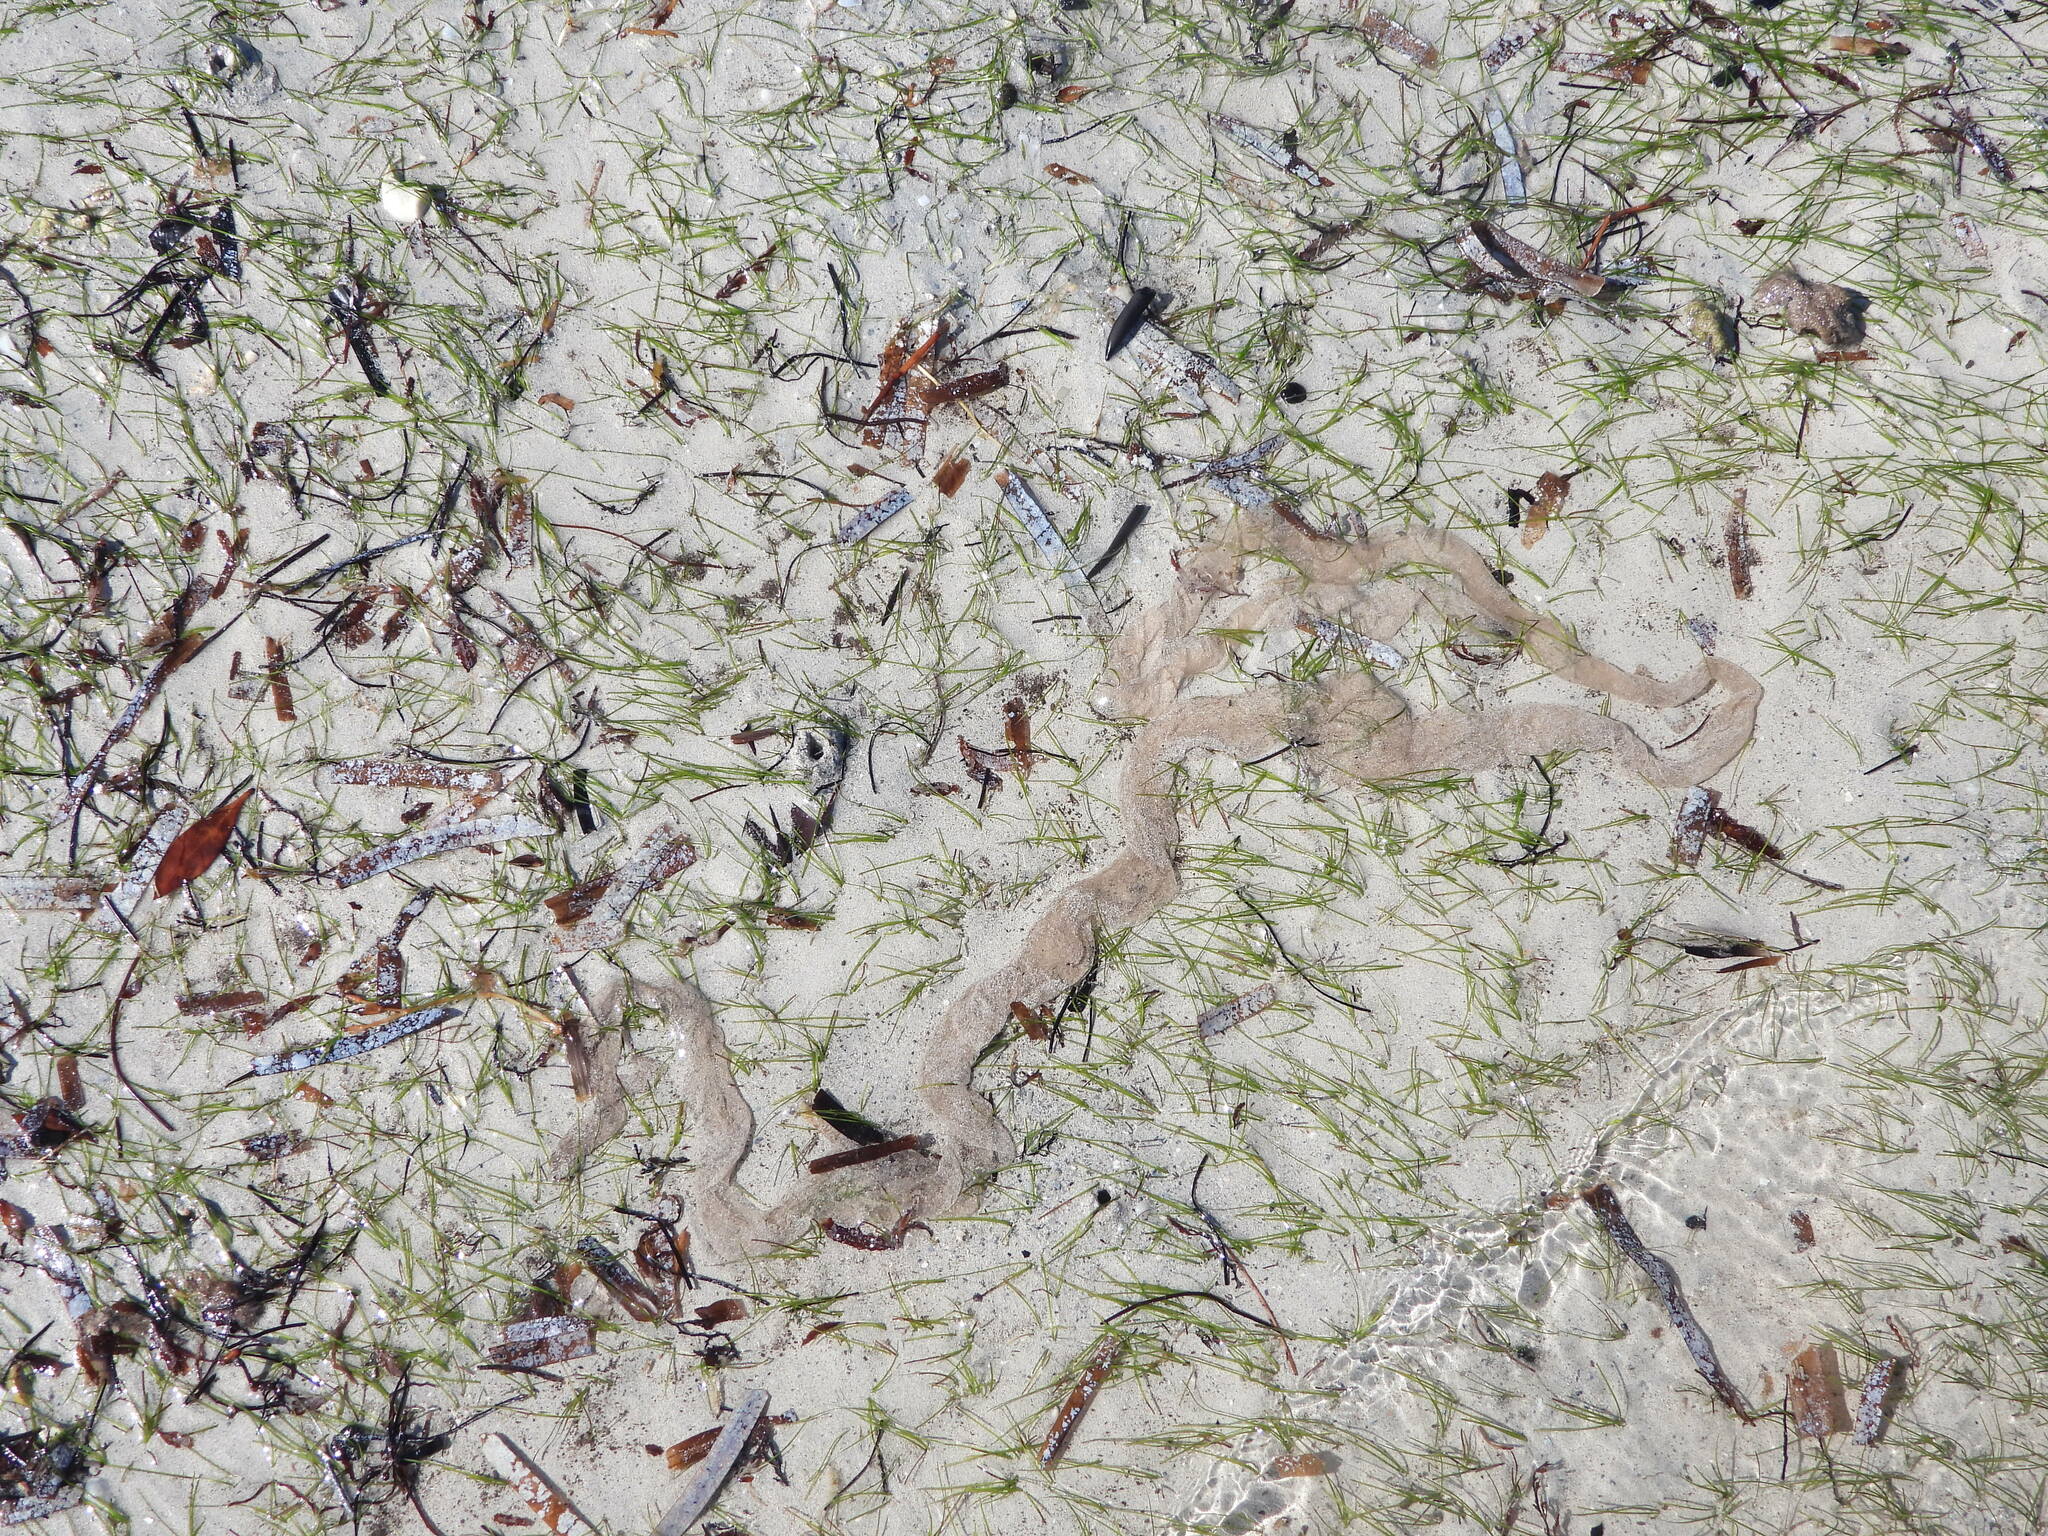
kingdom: Plantae
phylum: Tracheophyta
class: Liliopsida
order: Alismatales
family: Cymodoceaceae
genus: Halodule
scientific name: Halodule wrightii
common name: Shoalgrass
